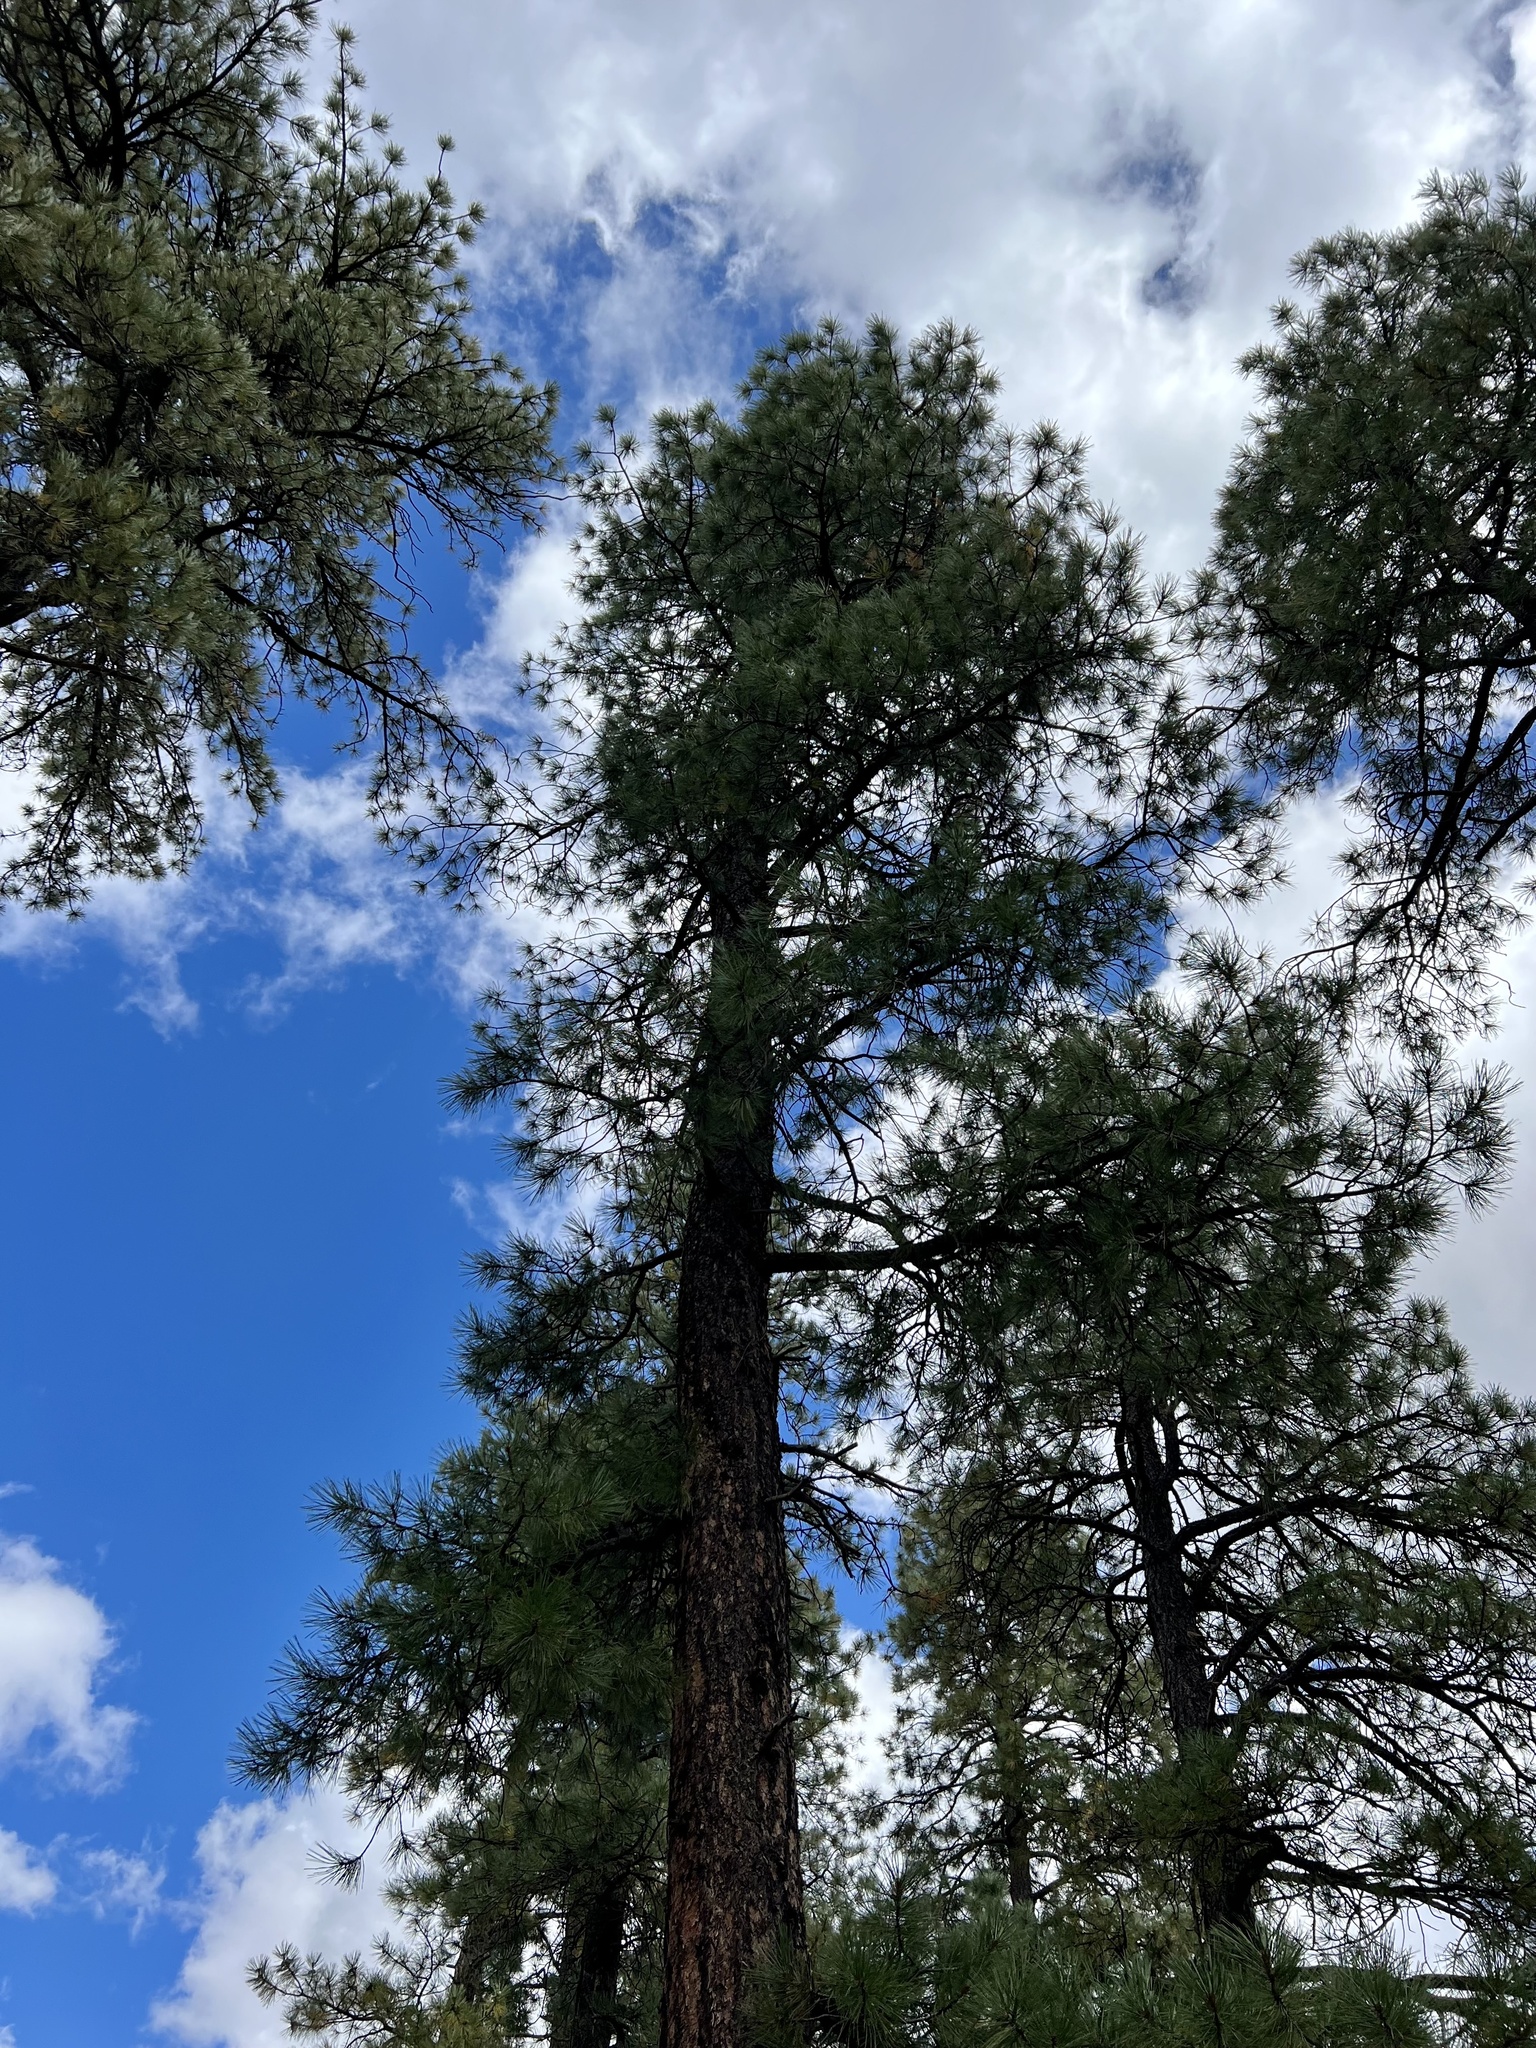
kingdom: Plantae
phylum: Tracheophyta
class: Pinopsida
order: Pinales
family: Pinaceae
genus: Pinus
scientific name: Pinus ponderosa
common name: Western yellow-pine
